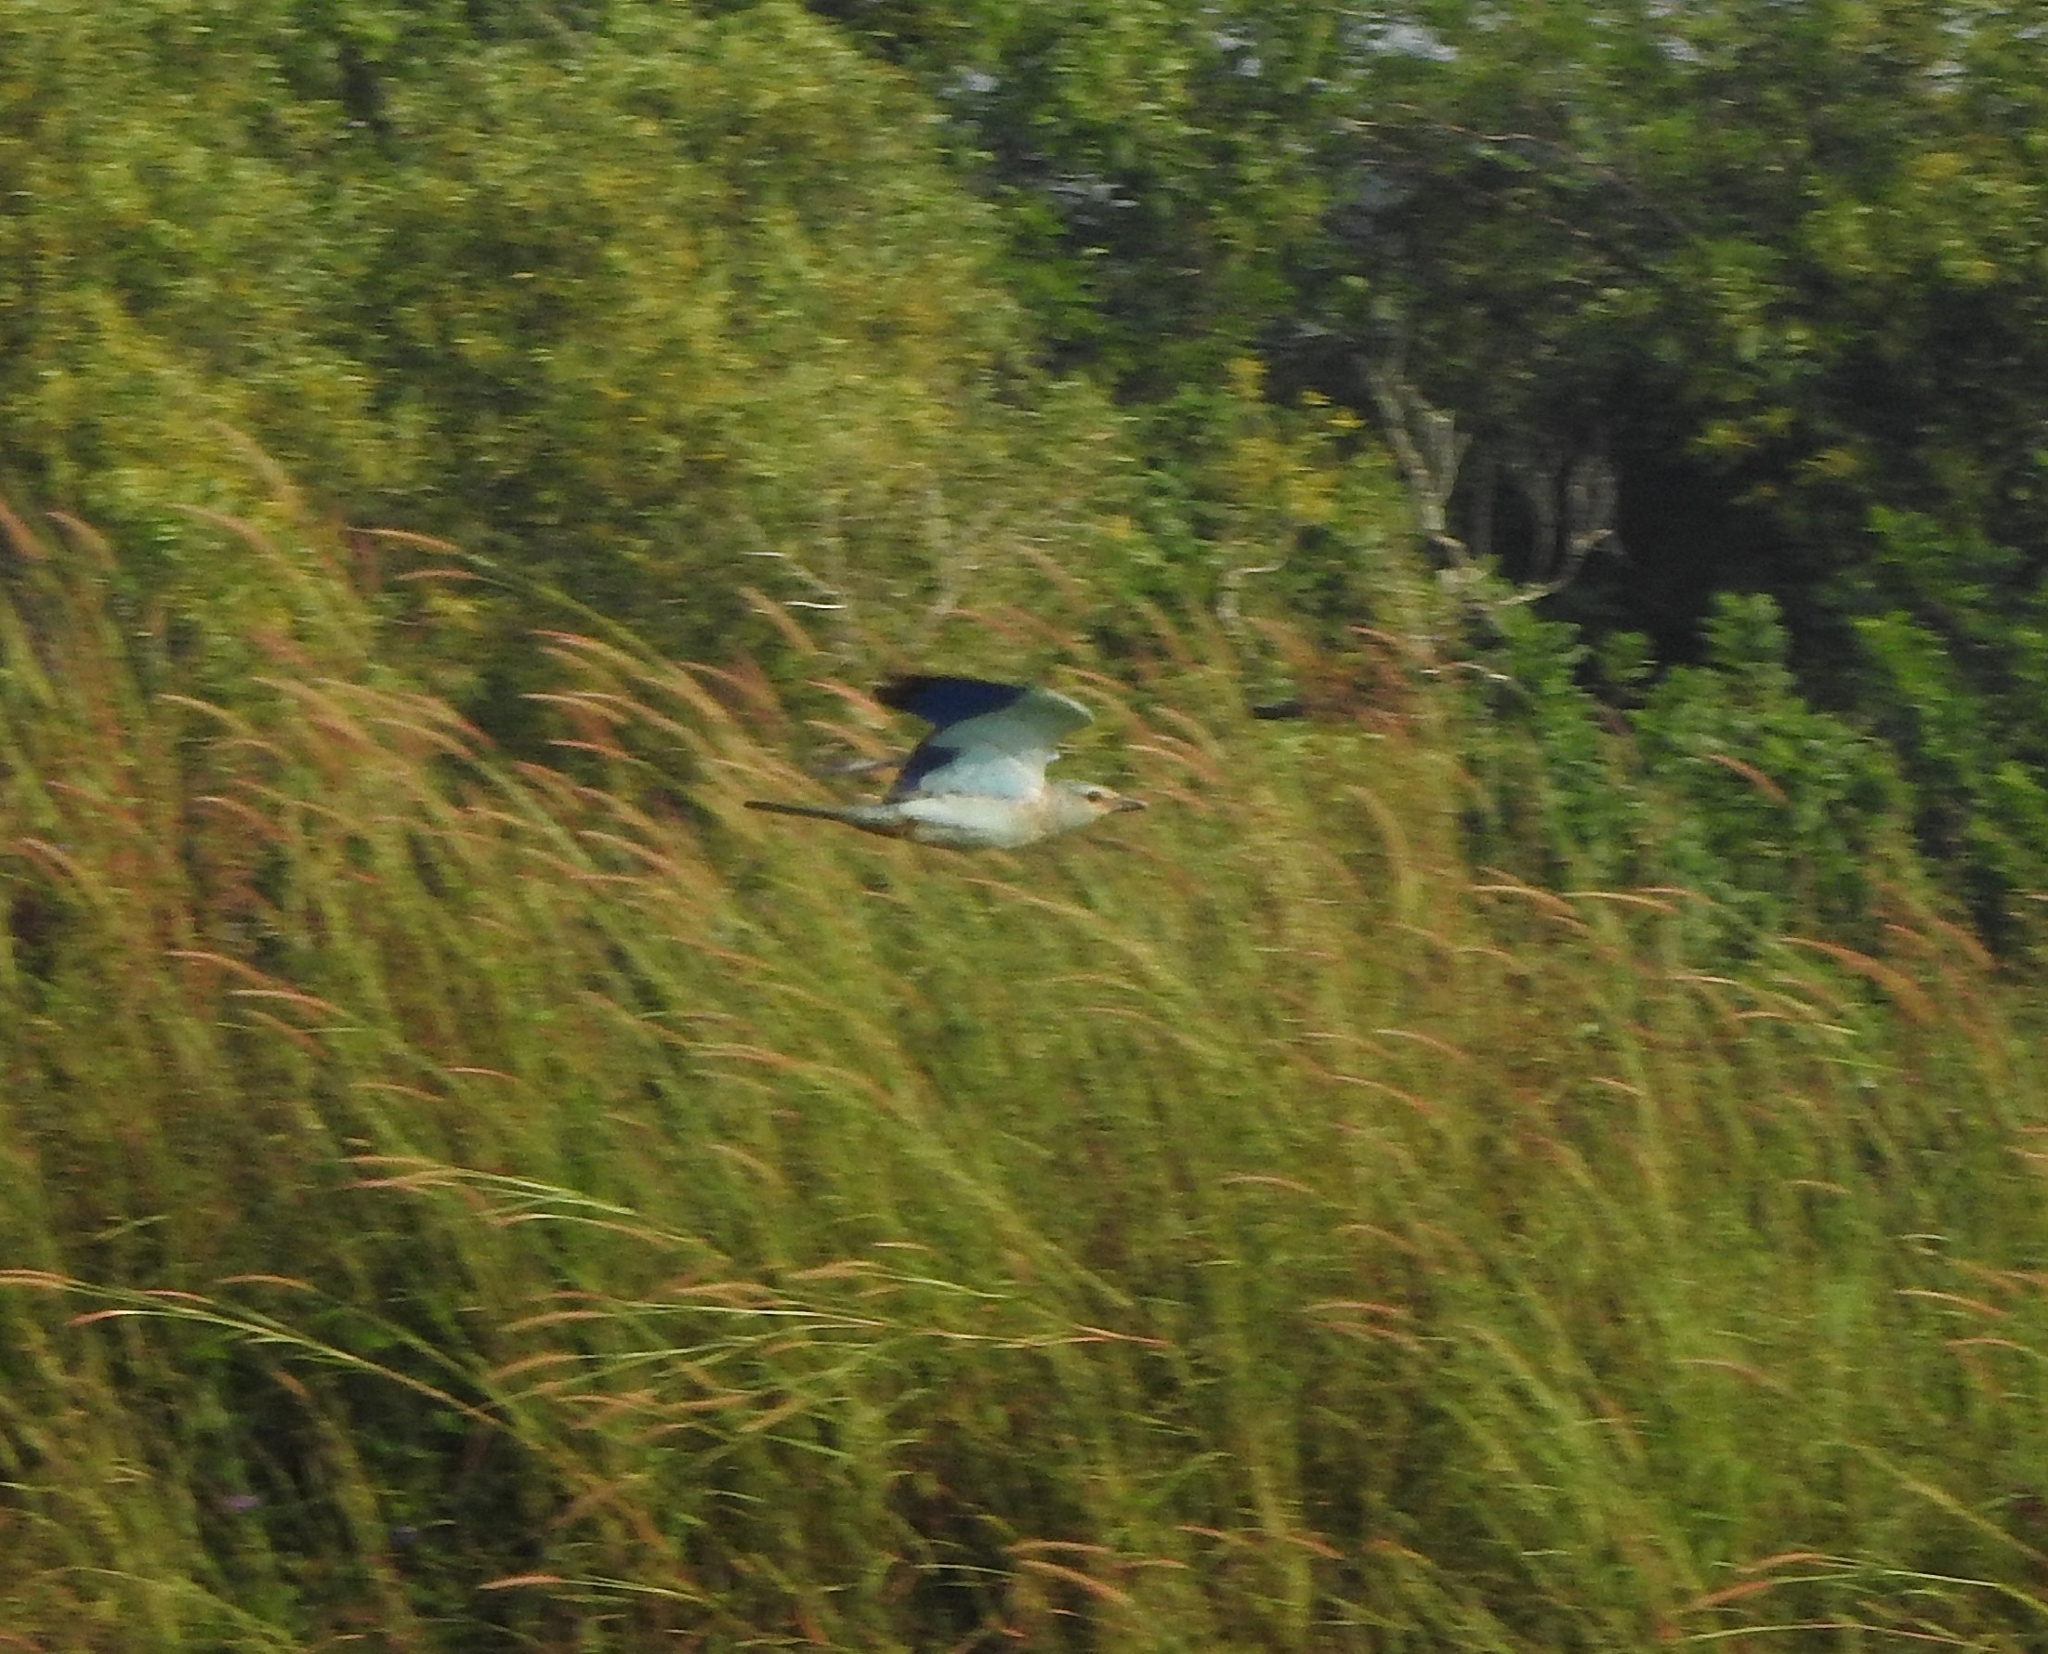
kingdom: Animalia
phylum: Chordata
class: Aves
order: Coraciiformes
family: Coraciidae
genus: Coracias
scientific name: Coracias garrulus
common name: European roller
